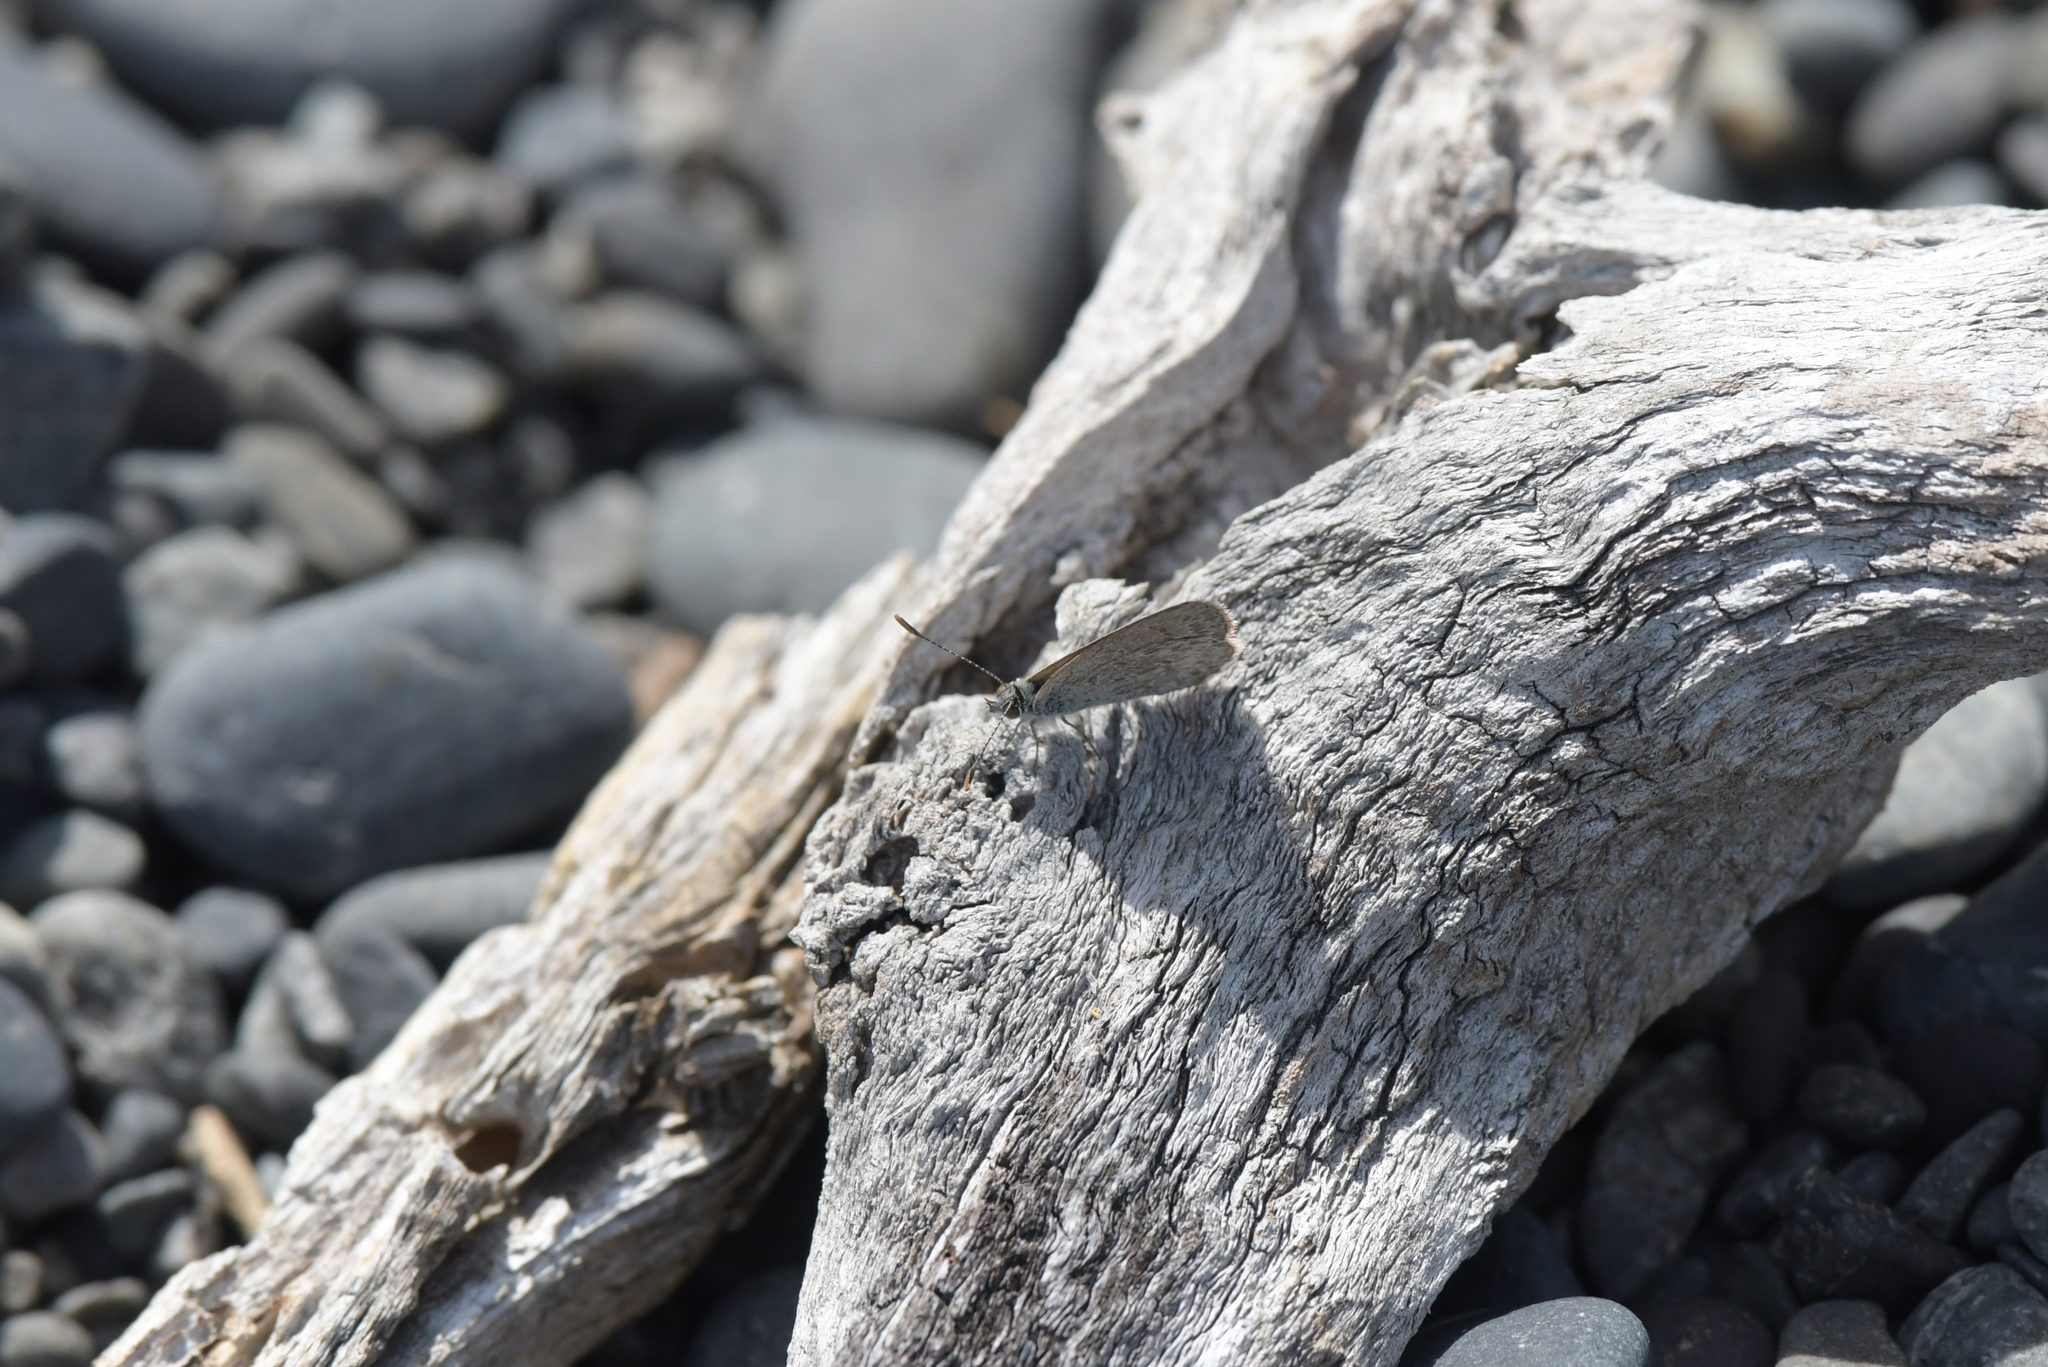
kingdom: Animalia
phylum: Arthropoda
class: Insecta
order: Lepidoptera
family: Lycaenidae
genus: Zizina
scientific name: Zizina labradus
